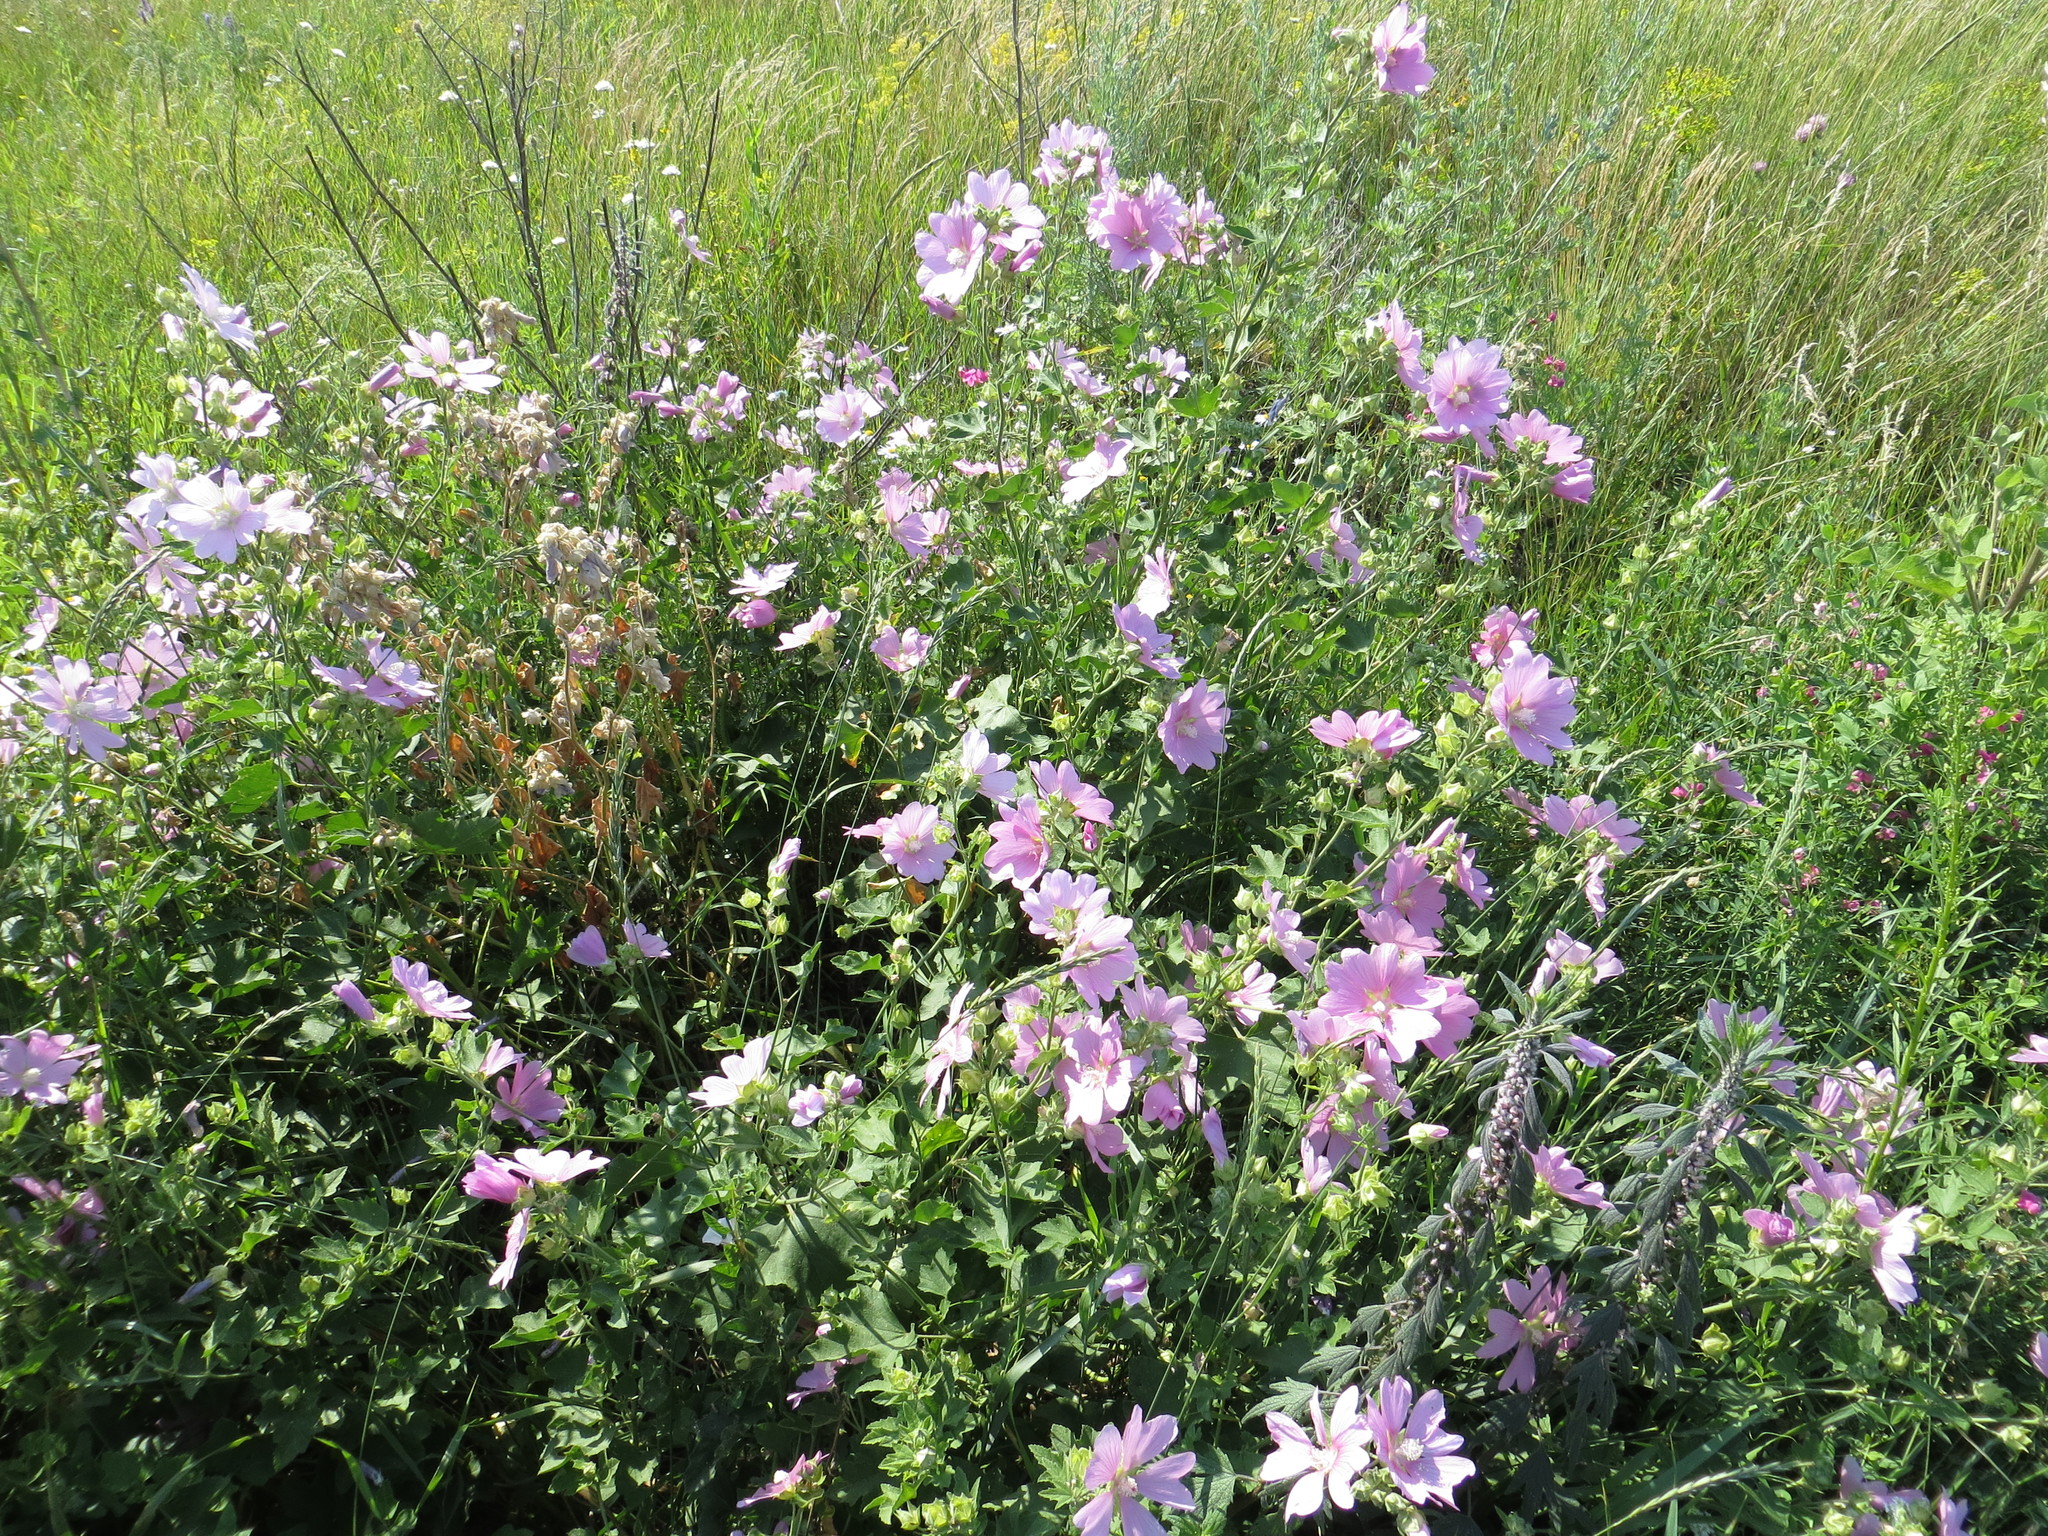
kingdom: Plantae
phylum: Tracheophyta
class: Magnoliopsida
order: Malvales
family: Malvaceae
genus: Malva
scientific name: Malva thuringiaca
